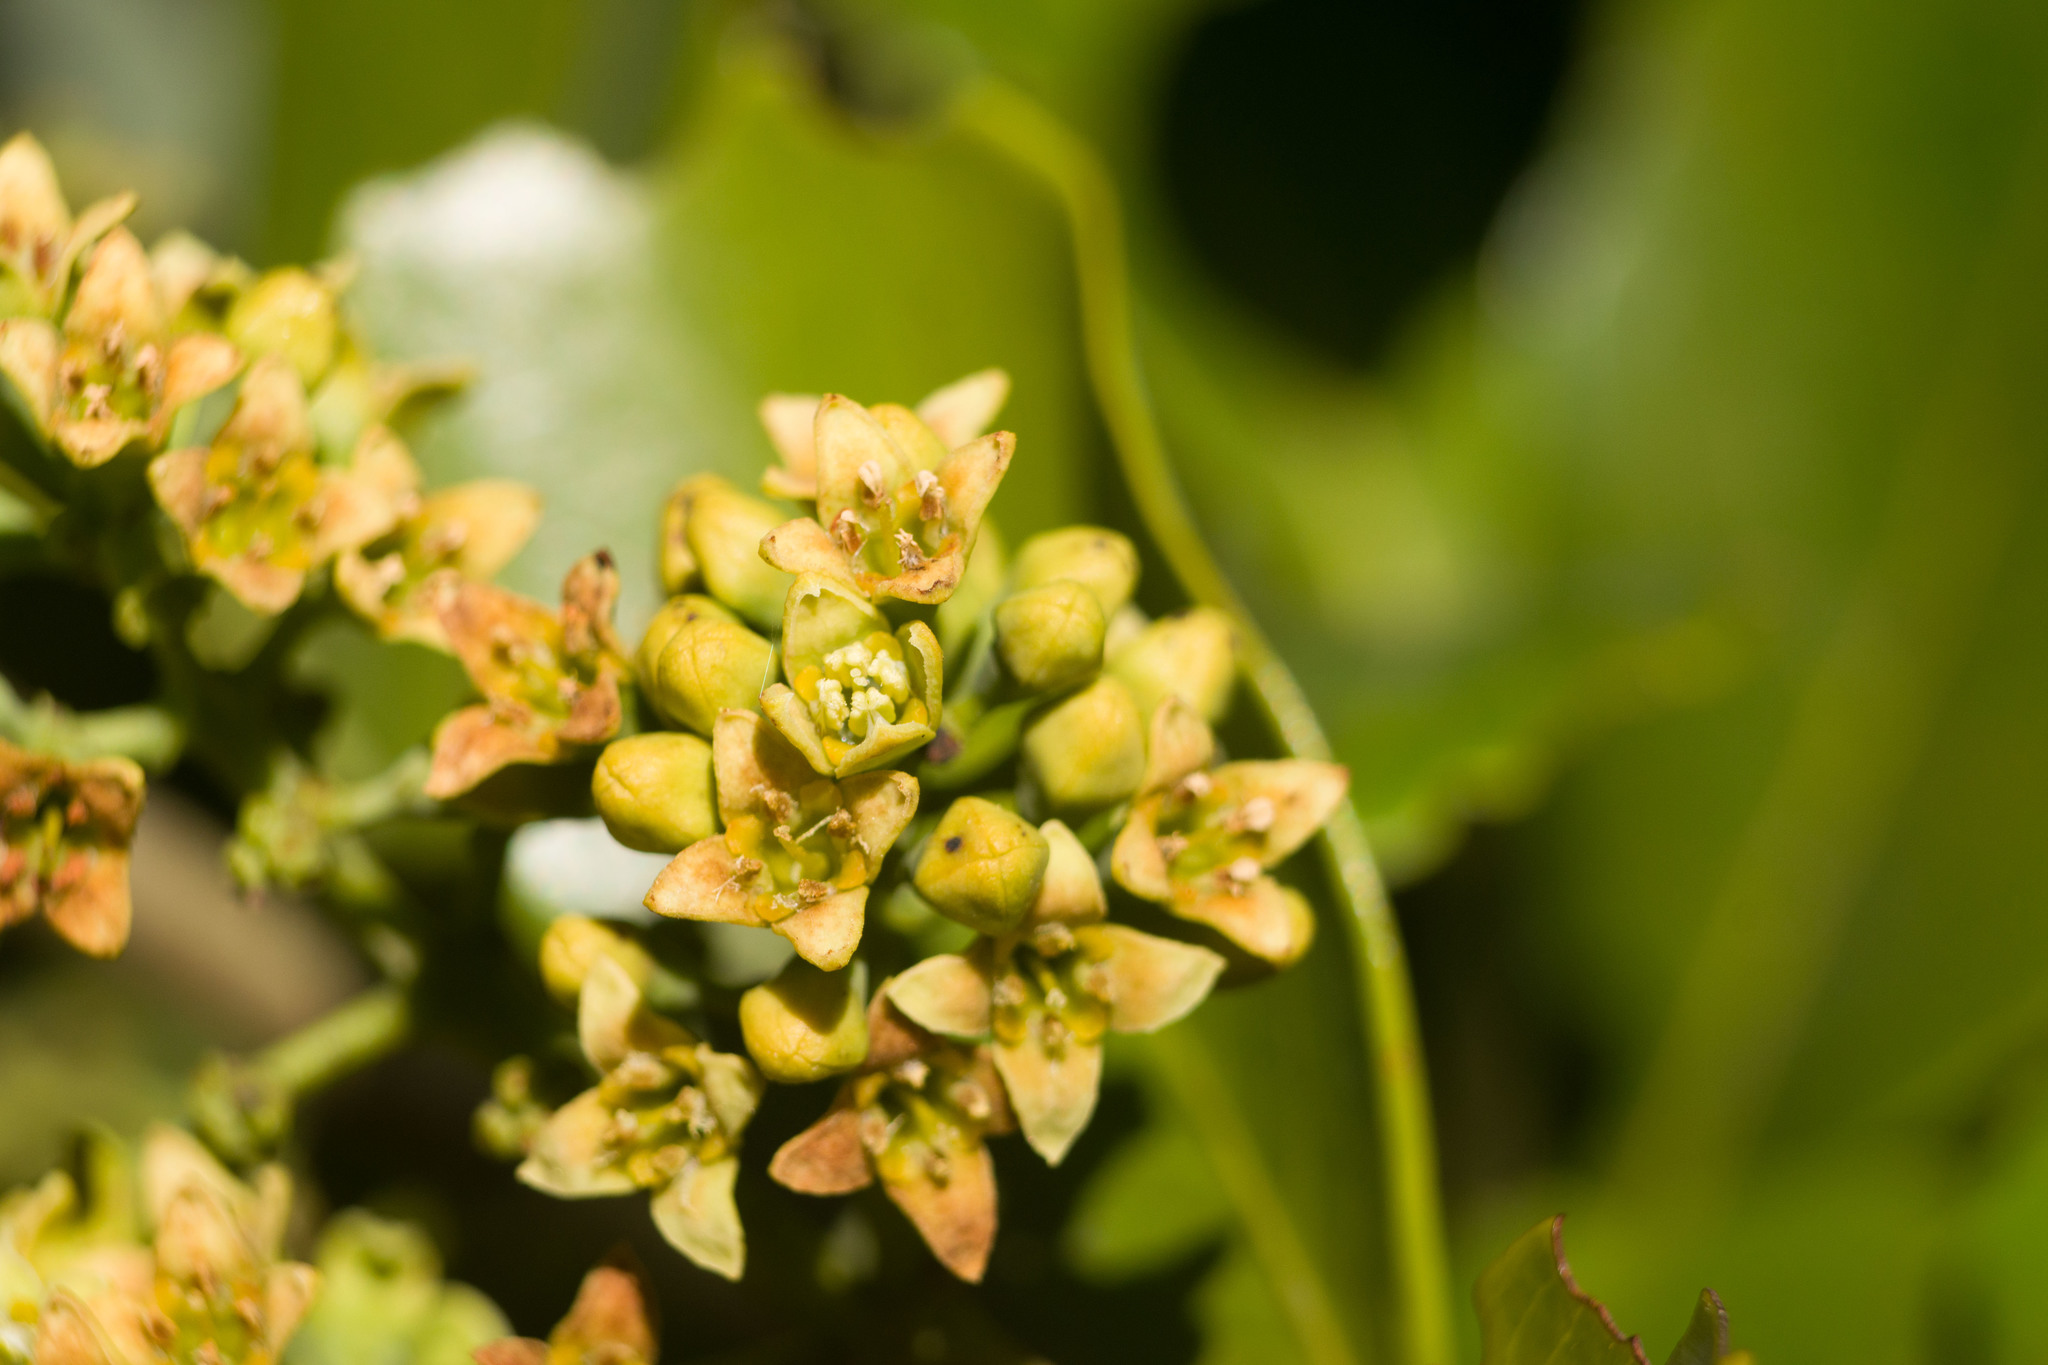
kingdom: Plantae
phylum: Tracheophyta
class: Magnoliopsida
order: Santalales
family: Santalaceae
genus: Santalum
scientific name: Santalum paniculatum
